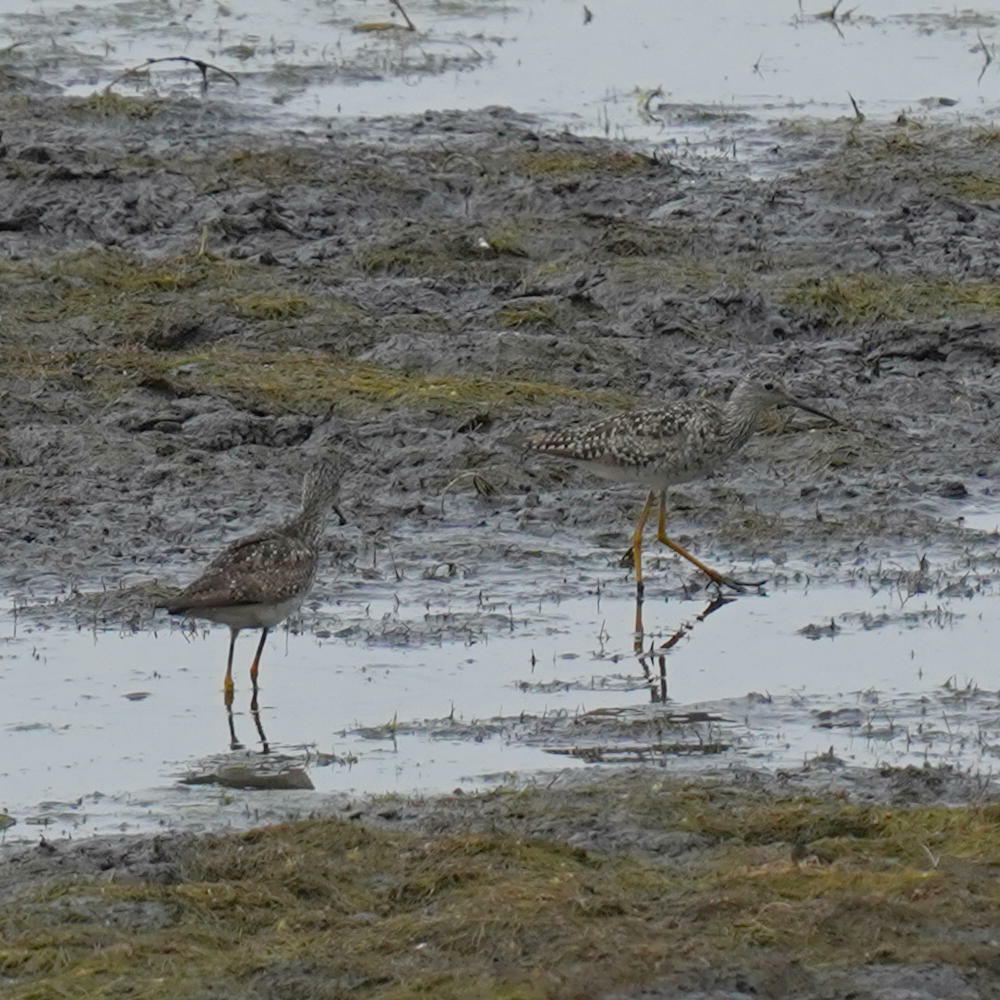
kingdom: Animalia
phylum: Chordata
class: Aves
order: Charadriiformes
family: Scolopacidae
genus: Tringa
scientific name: Tringa flavipes
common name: Lesser yellowlegs
